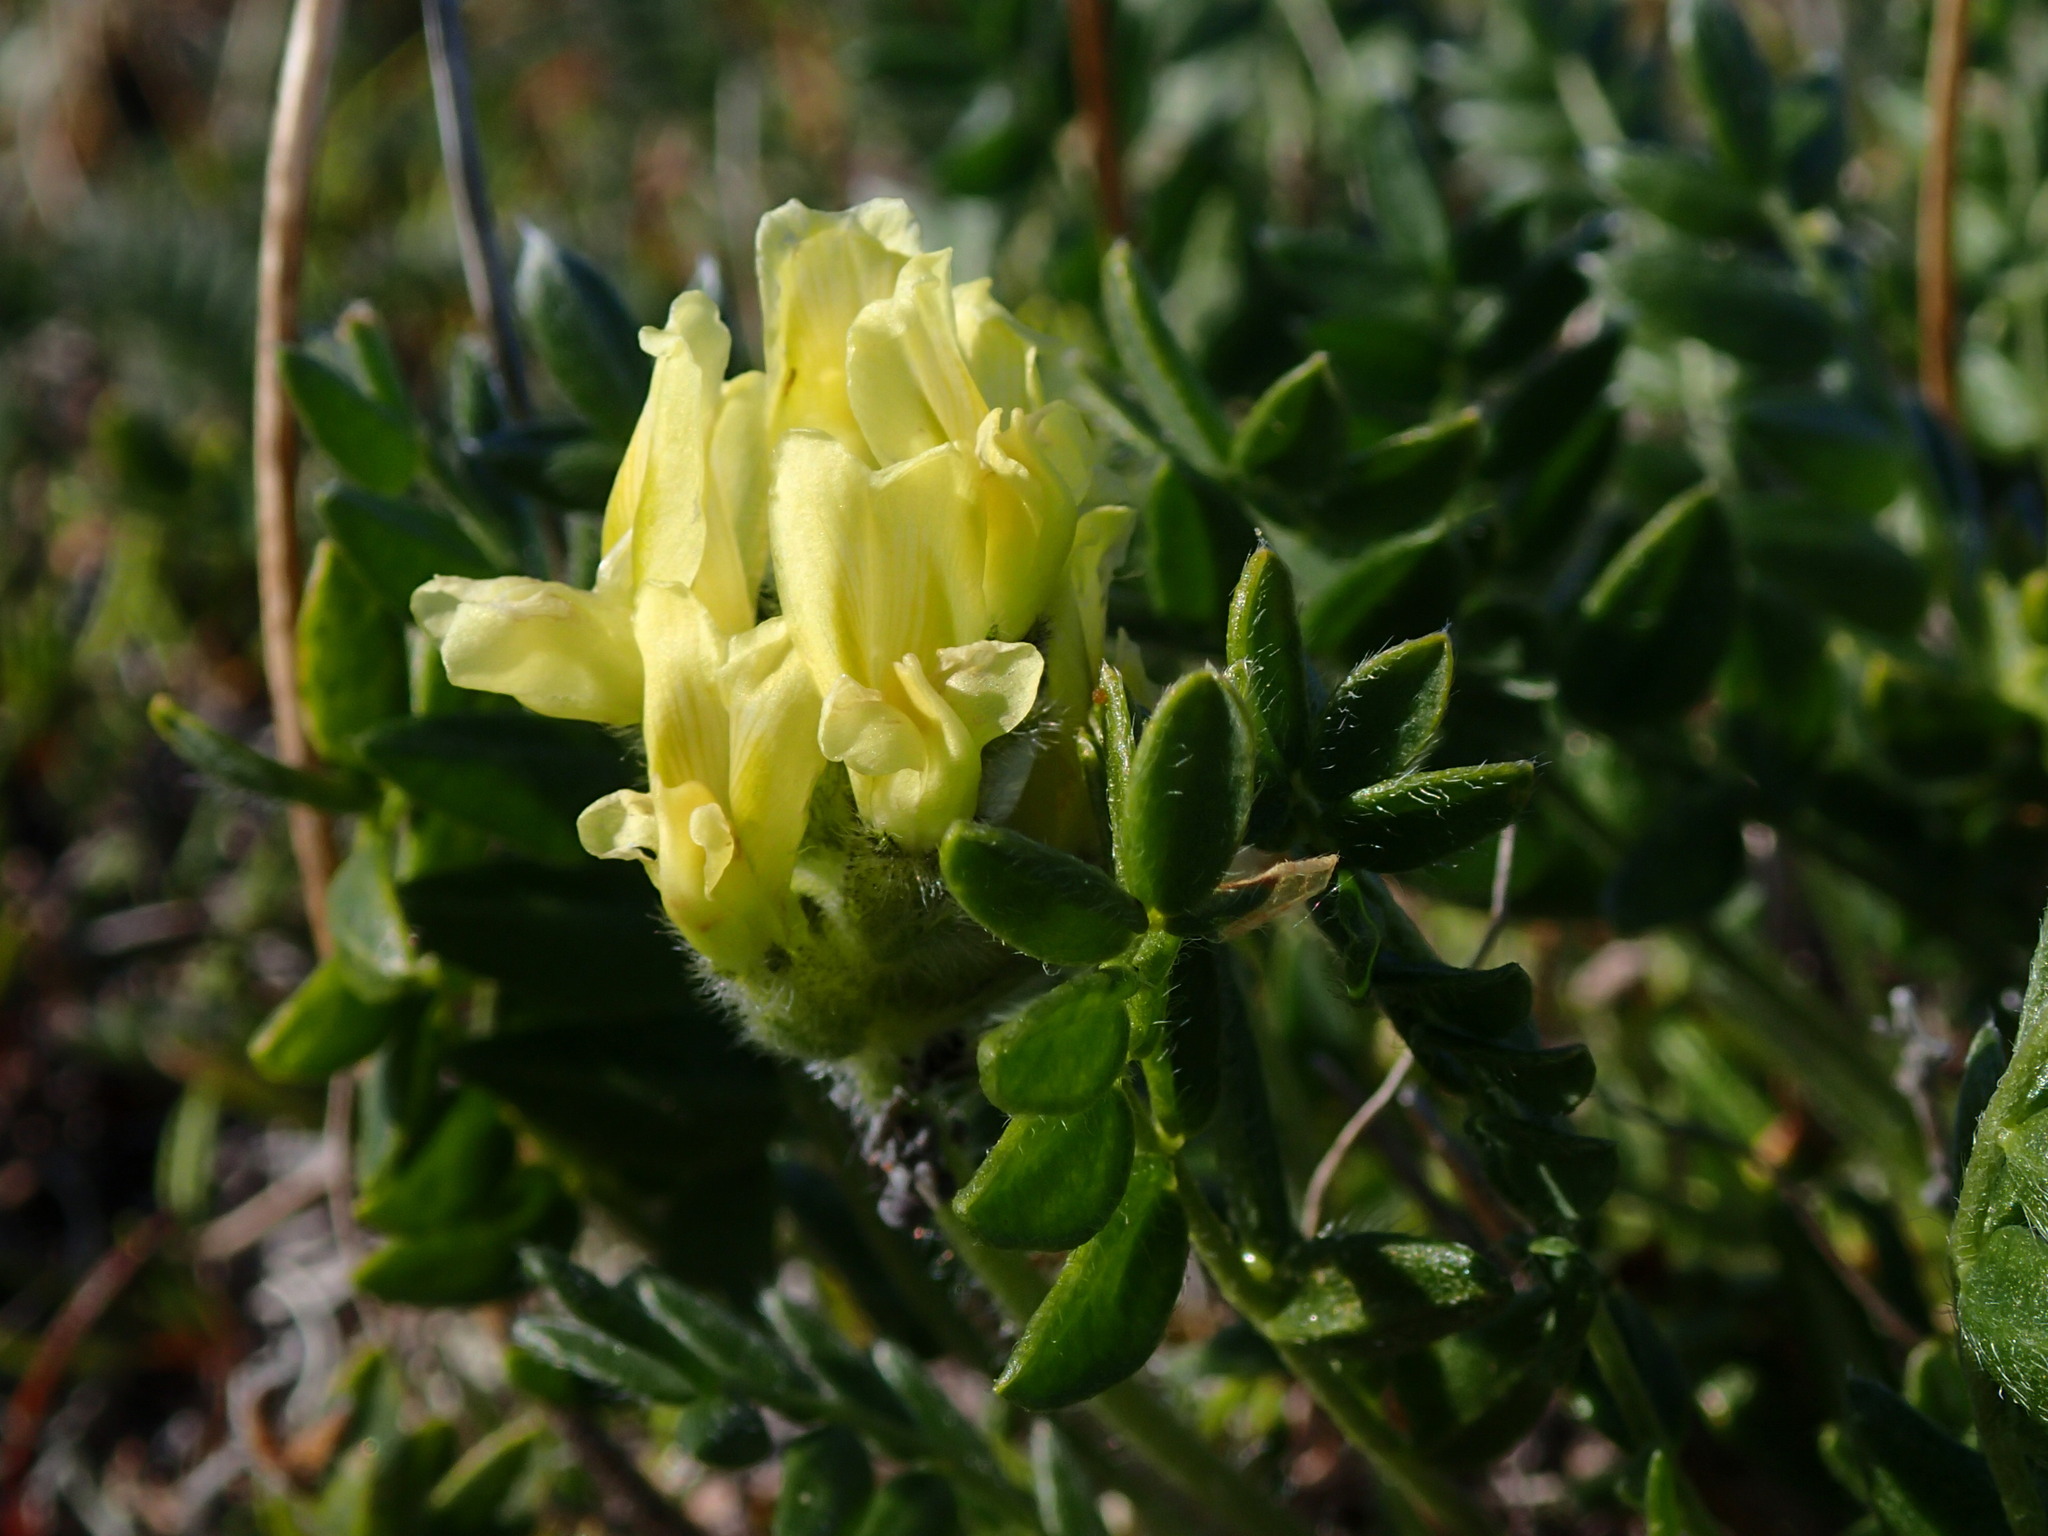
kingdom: Plantae
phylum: Tracheophyta
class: Magnoliopsida
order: Fabales
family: Fabaceae
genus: Oxytropis
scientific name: Oxytropis maydelliana
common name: Maydell's locoweed
